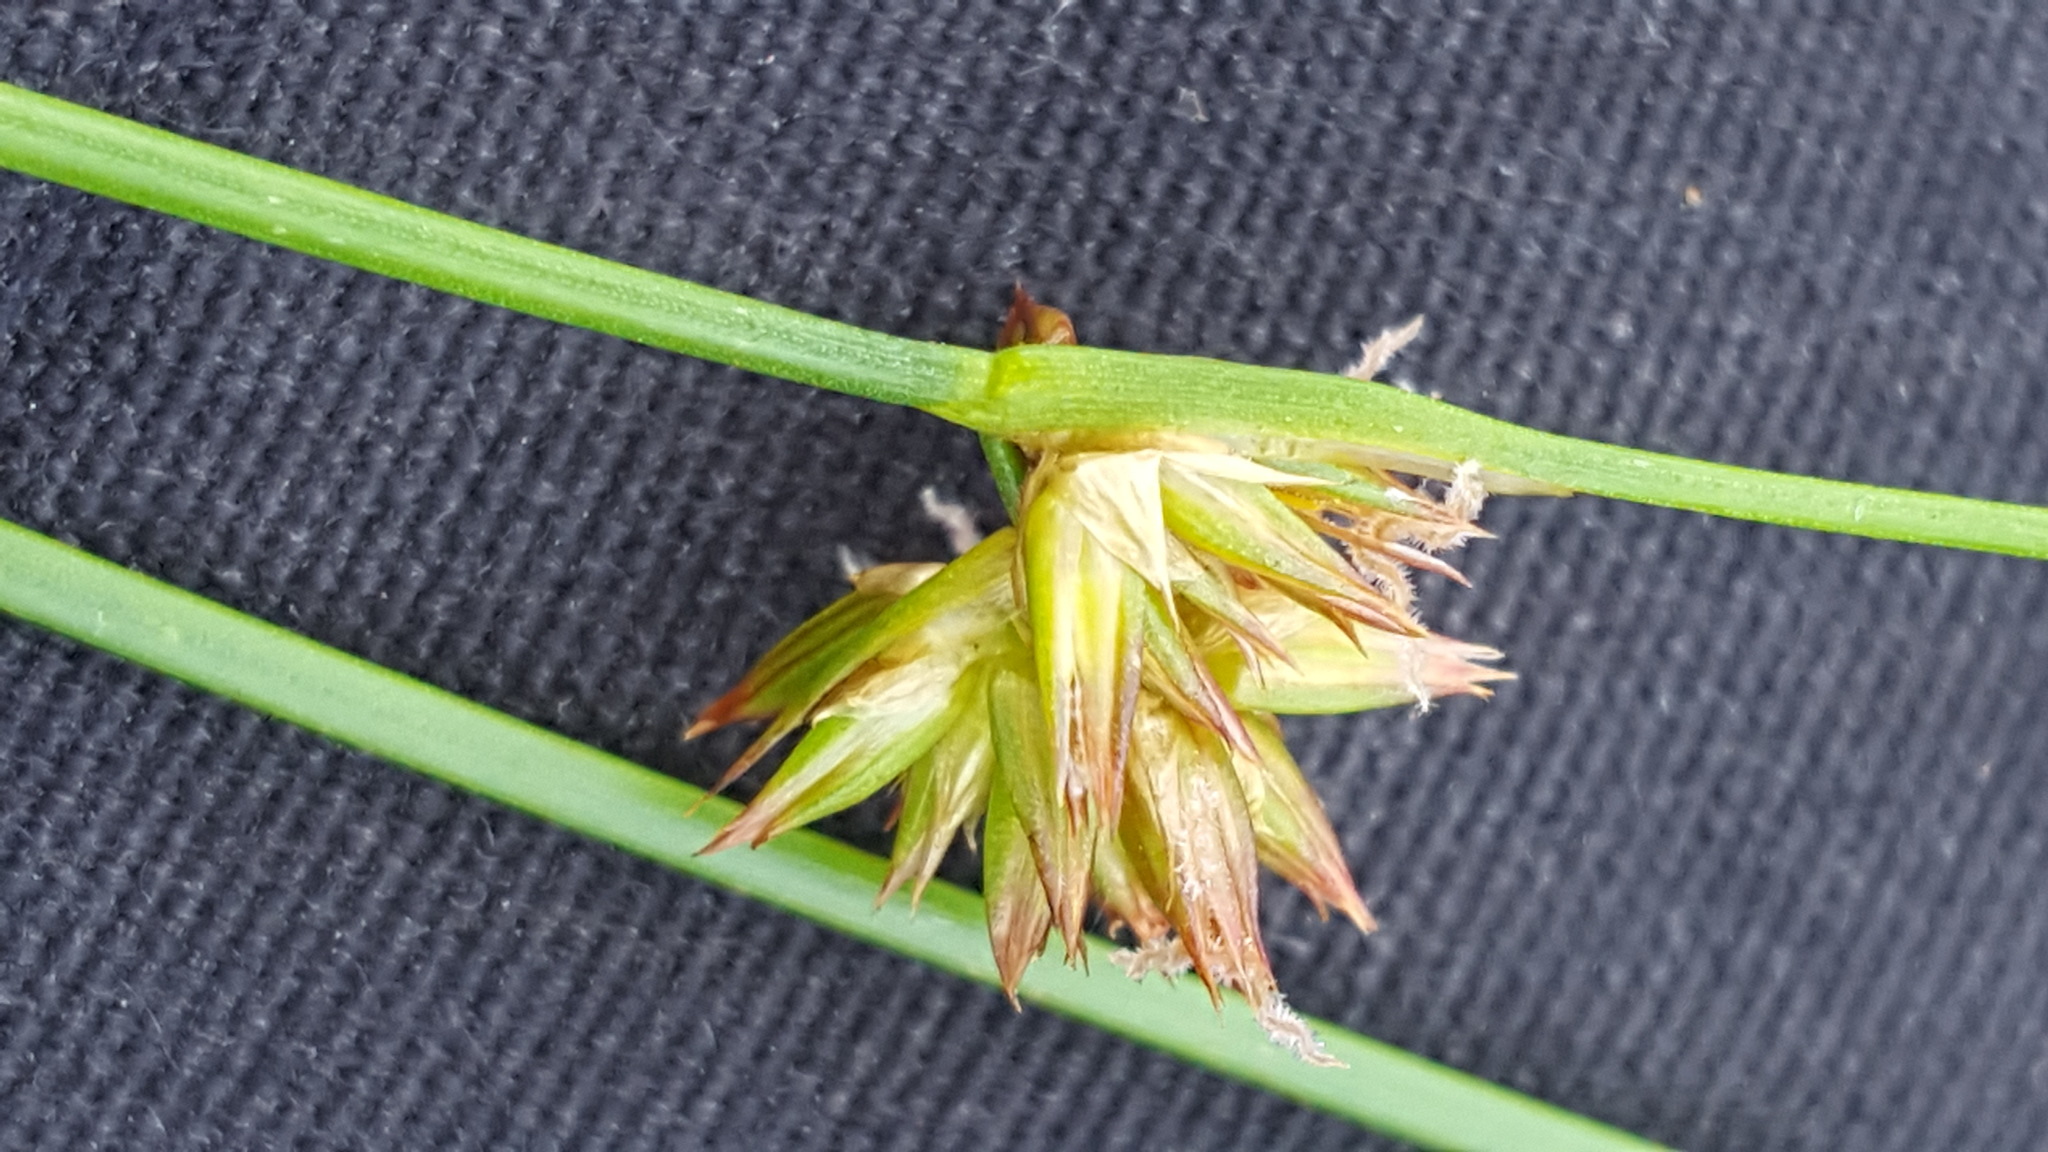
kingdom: Plantae
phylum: Tracheophyta
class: Liliopsida
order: Poales
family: Juncaceae
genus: Juncus
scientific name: Juncus nodosus
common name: Knotted rush
